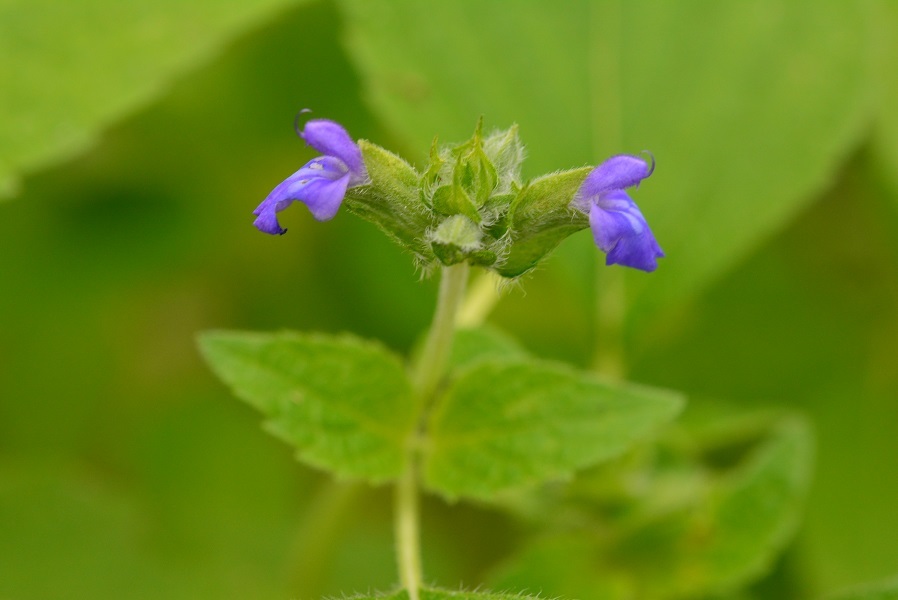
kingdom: Plantae
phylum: Tracheophyta
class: Magnoliopsida
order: Lamiales
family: Lamiaceae
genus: Salvia
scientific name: Salvia hispanica
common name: Chia
